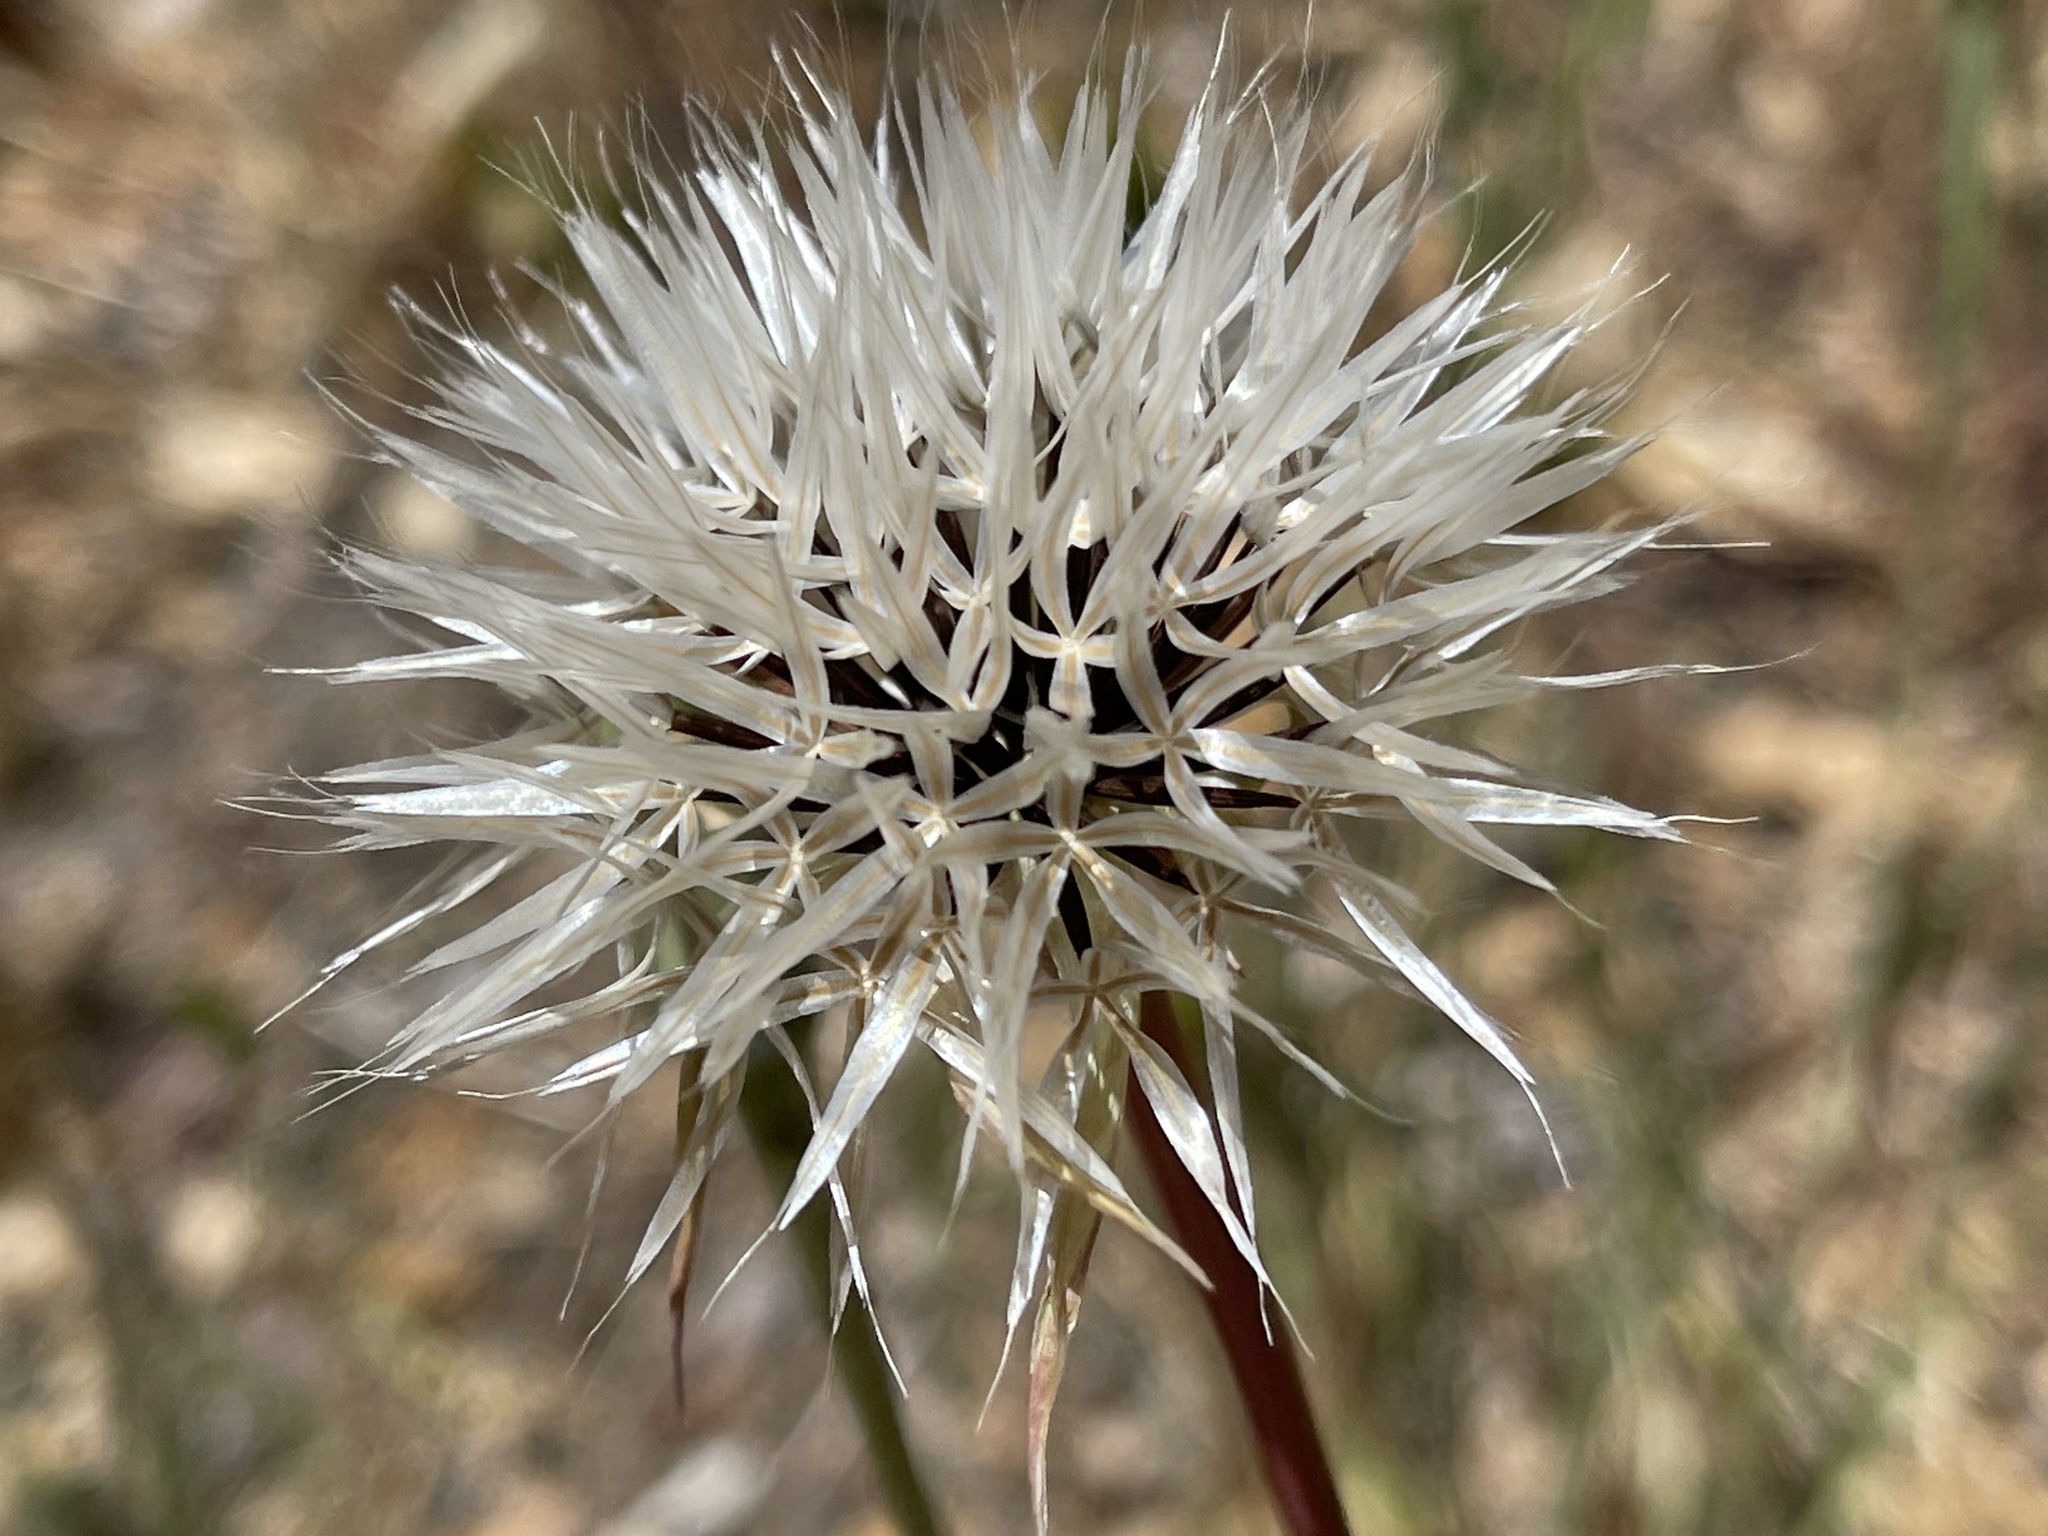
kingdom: Plantae
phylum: Tracheophyta
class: Magnoliopsida
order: Asterales
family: Asteraceae
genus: Microseris
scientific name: Microseris lindleyi
